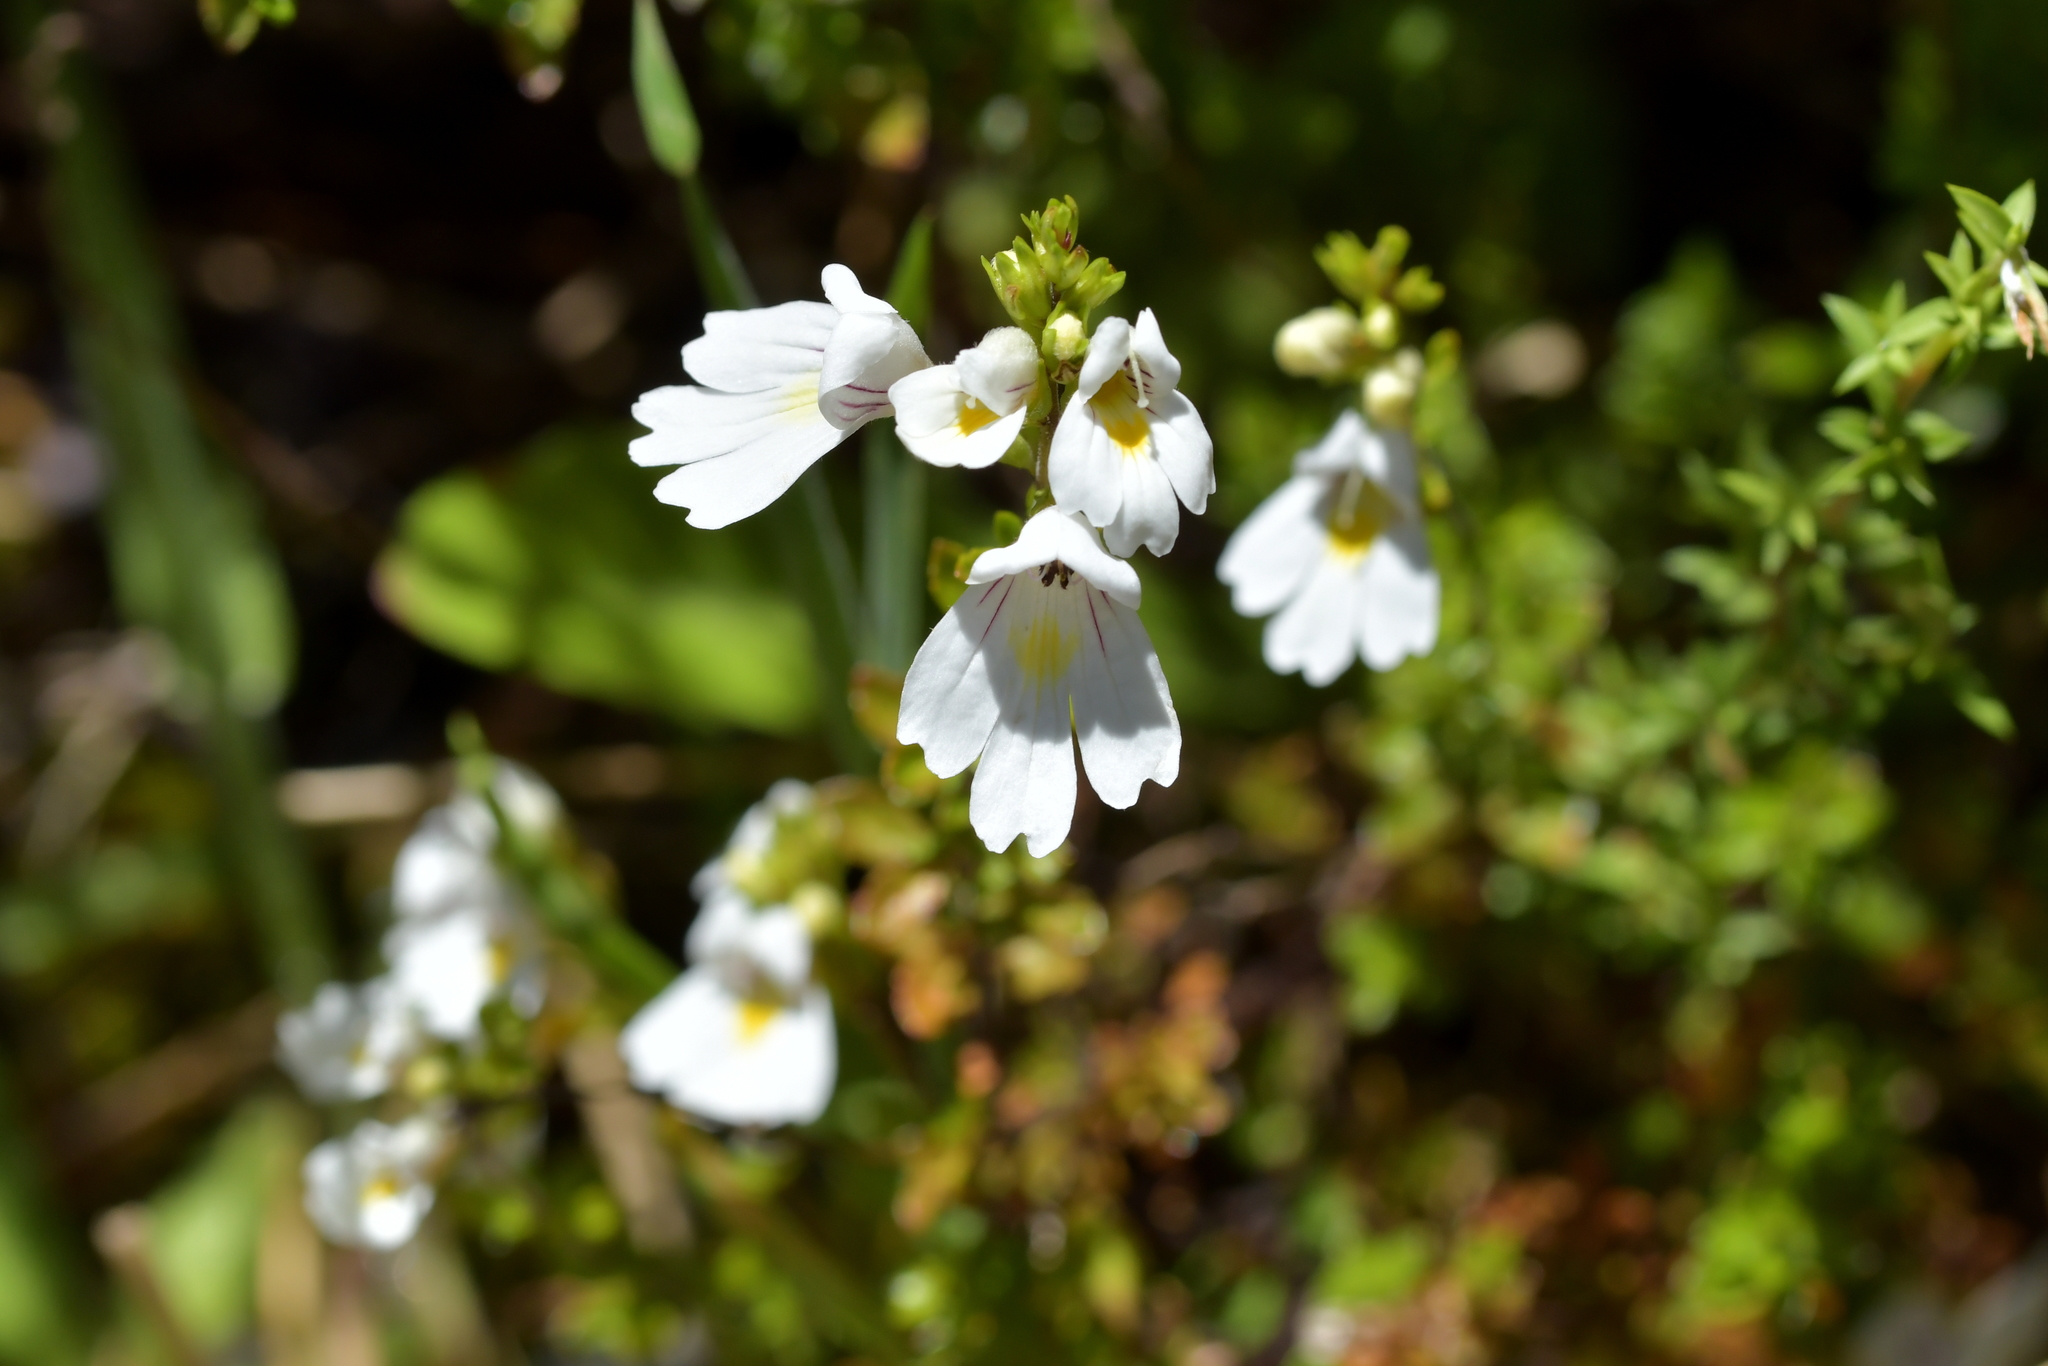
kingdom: Plantae
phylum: Tracheophyta
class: Magnoliopsida
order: Lamiales
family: Orobanchaceae
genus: Euphrasia
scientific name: Euphrasia cuneata
